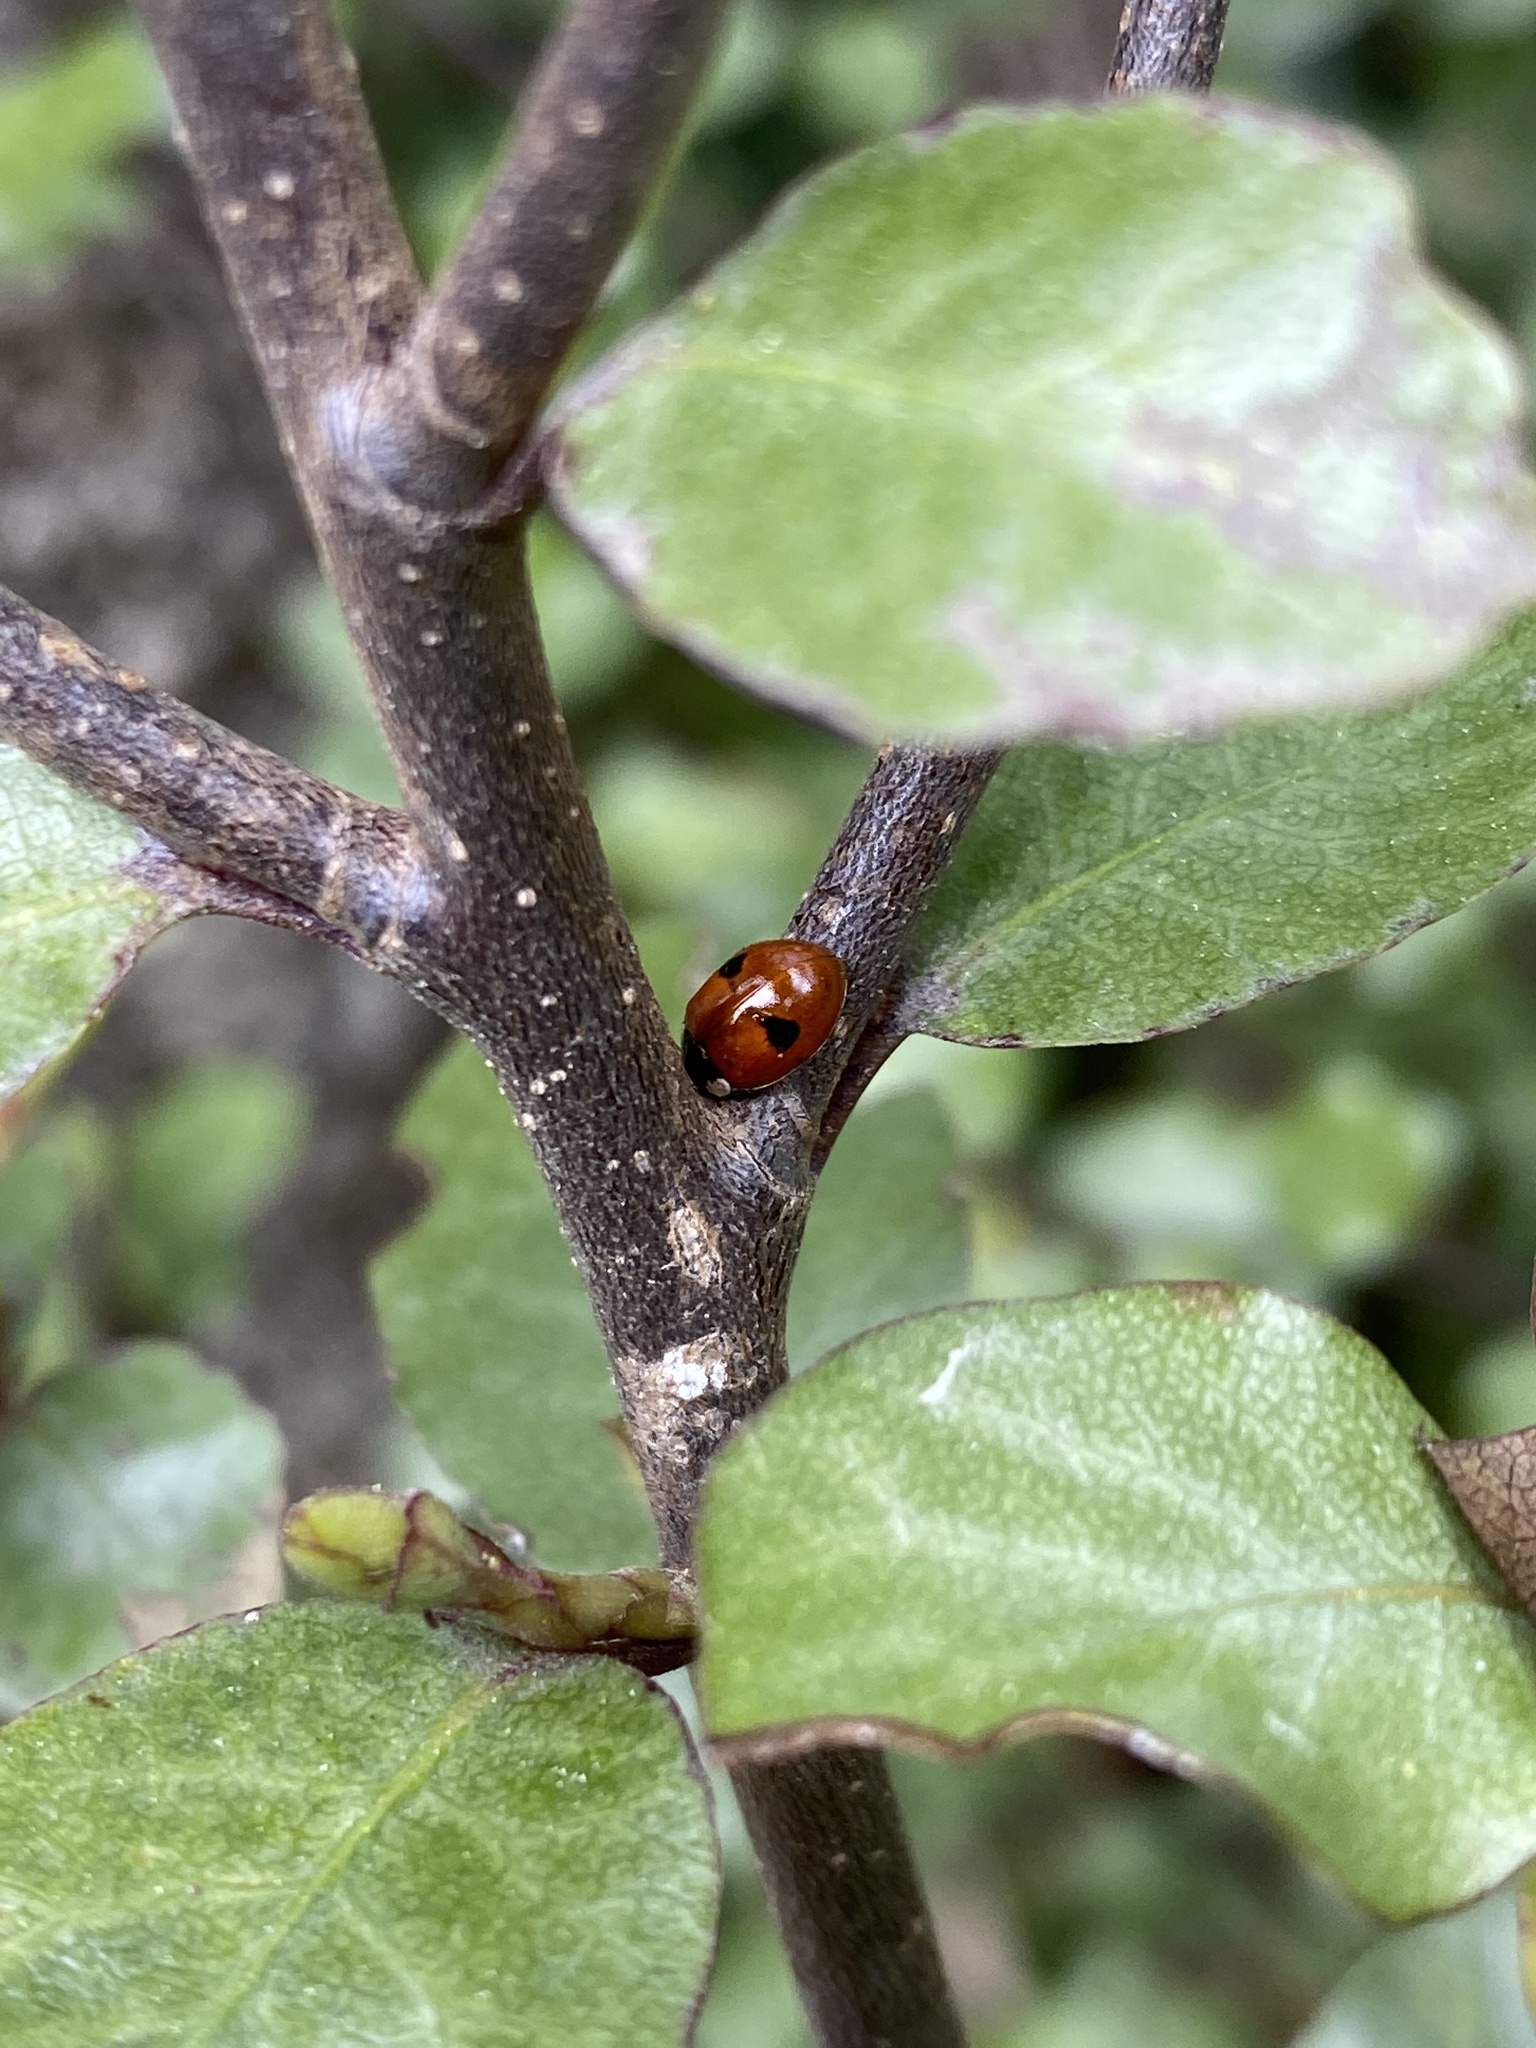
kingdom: Animalia
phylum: Arthropoda
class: Insecta
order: Coleoptera
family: Coccinellidae
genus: Adalia
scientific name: Adalia bipunctata
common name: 2-spot ladybird
